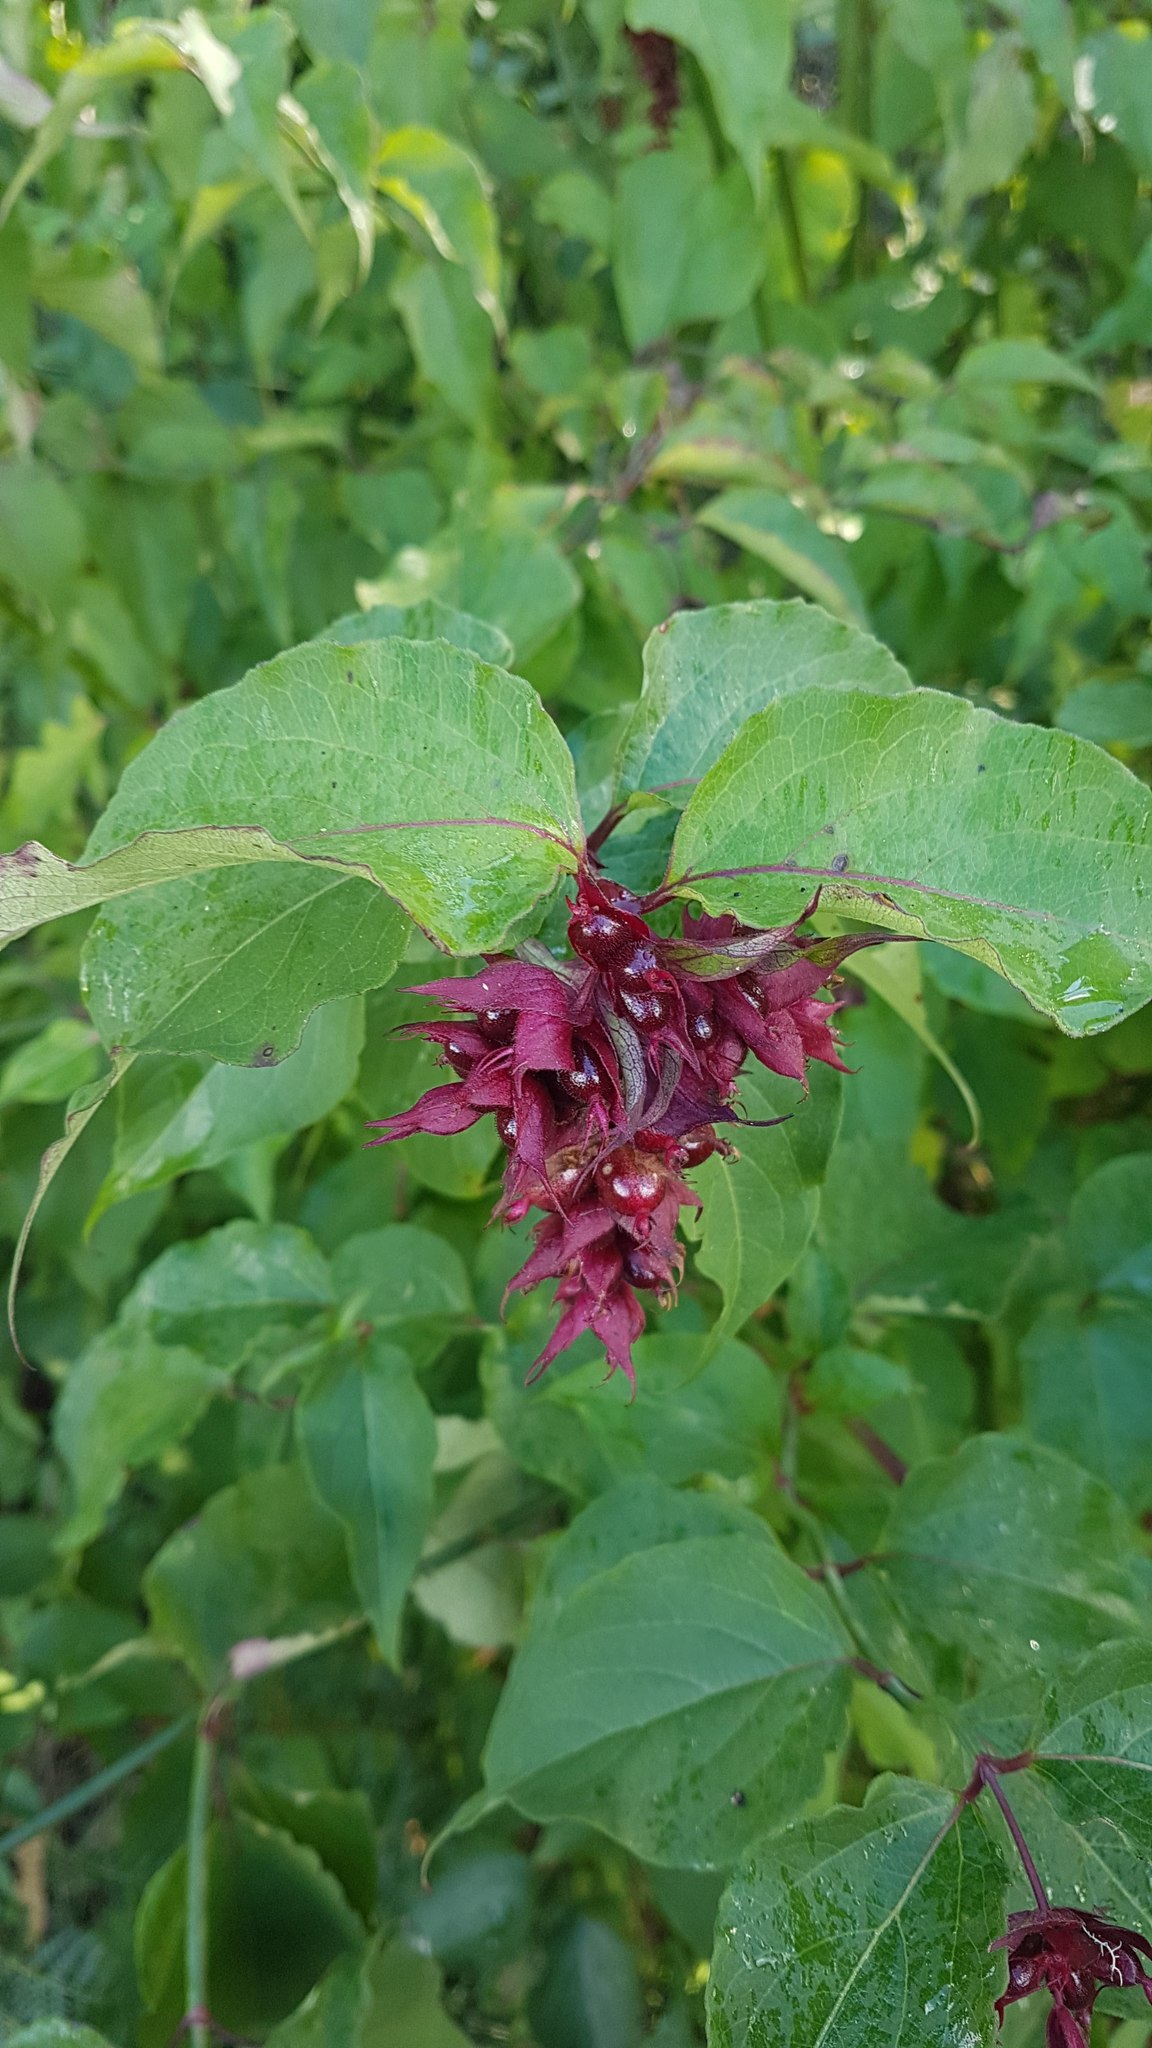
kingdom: Plantae
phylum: Tracheophyta
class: Magnoliopsida
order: Dipsacales
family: Caprifoliaceae
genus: Leycesteria
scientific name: Leycesteria formosa
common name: Himalayan honeysuckle
